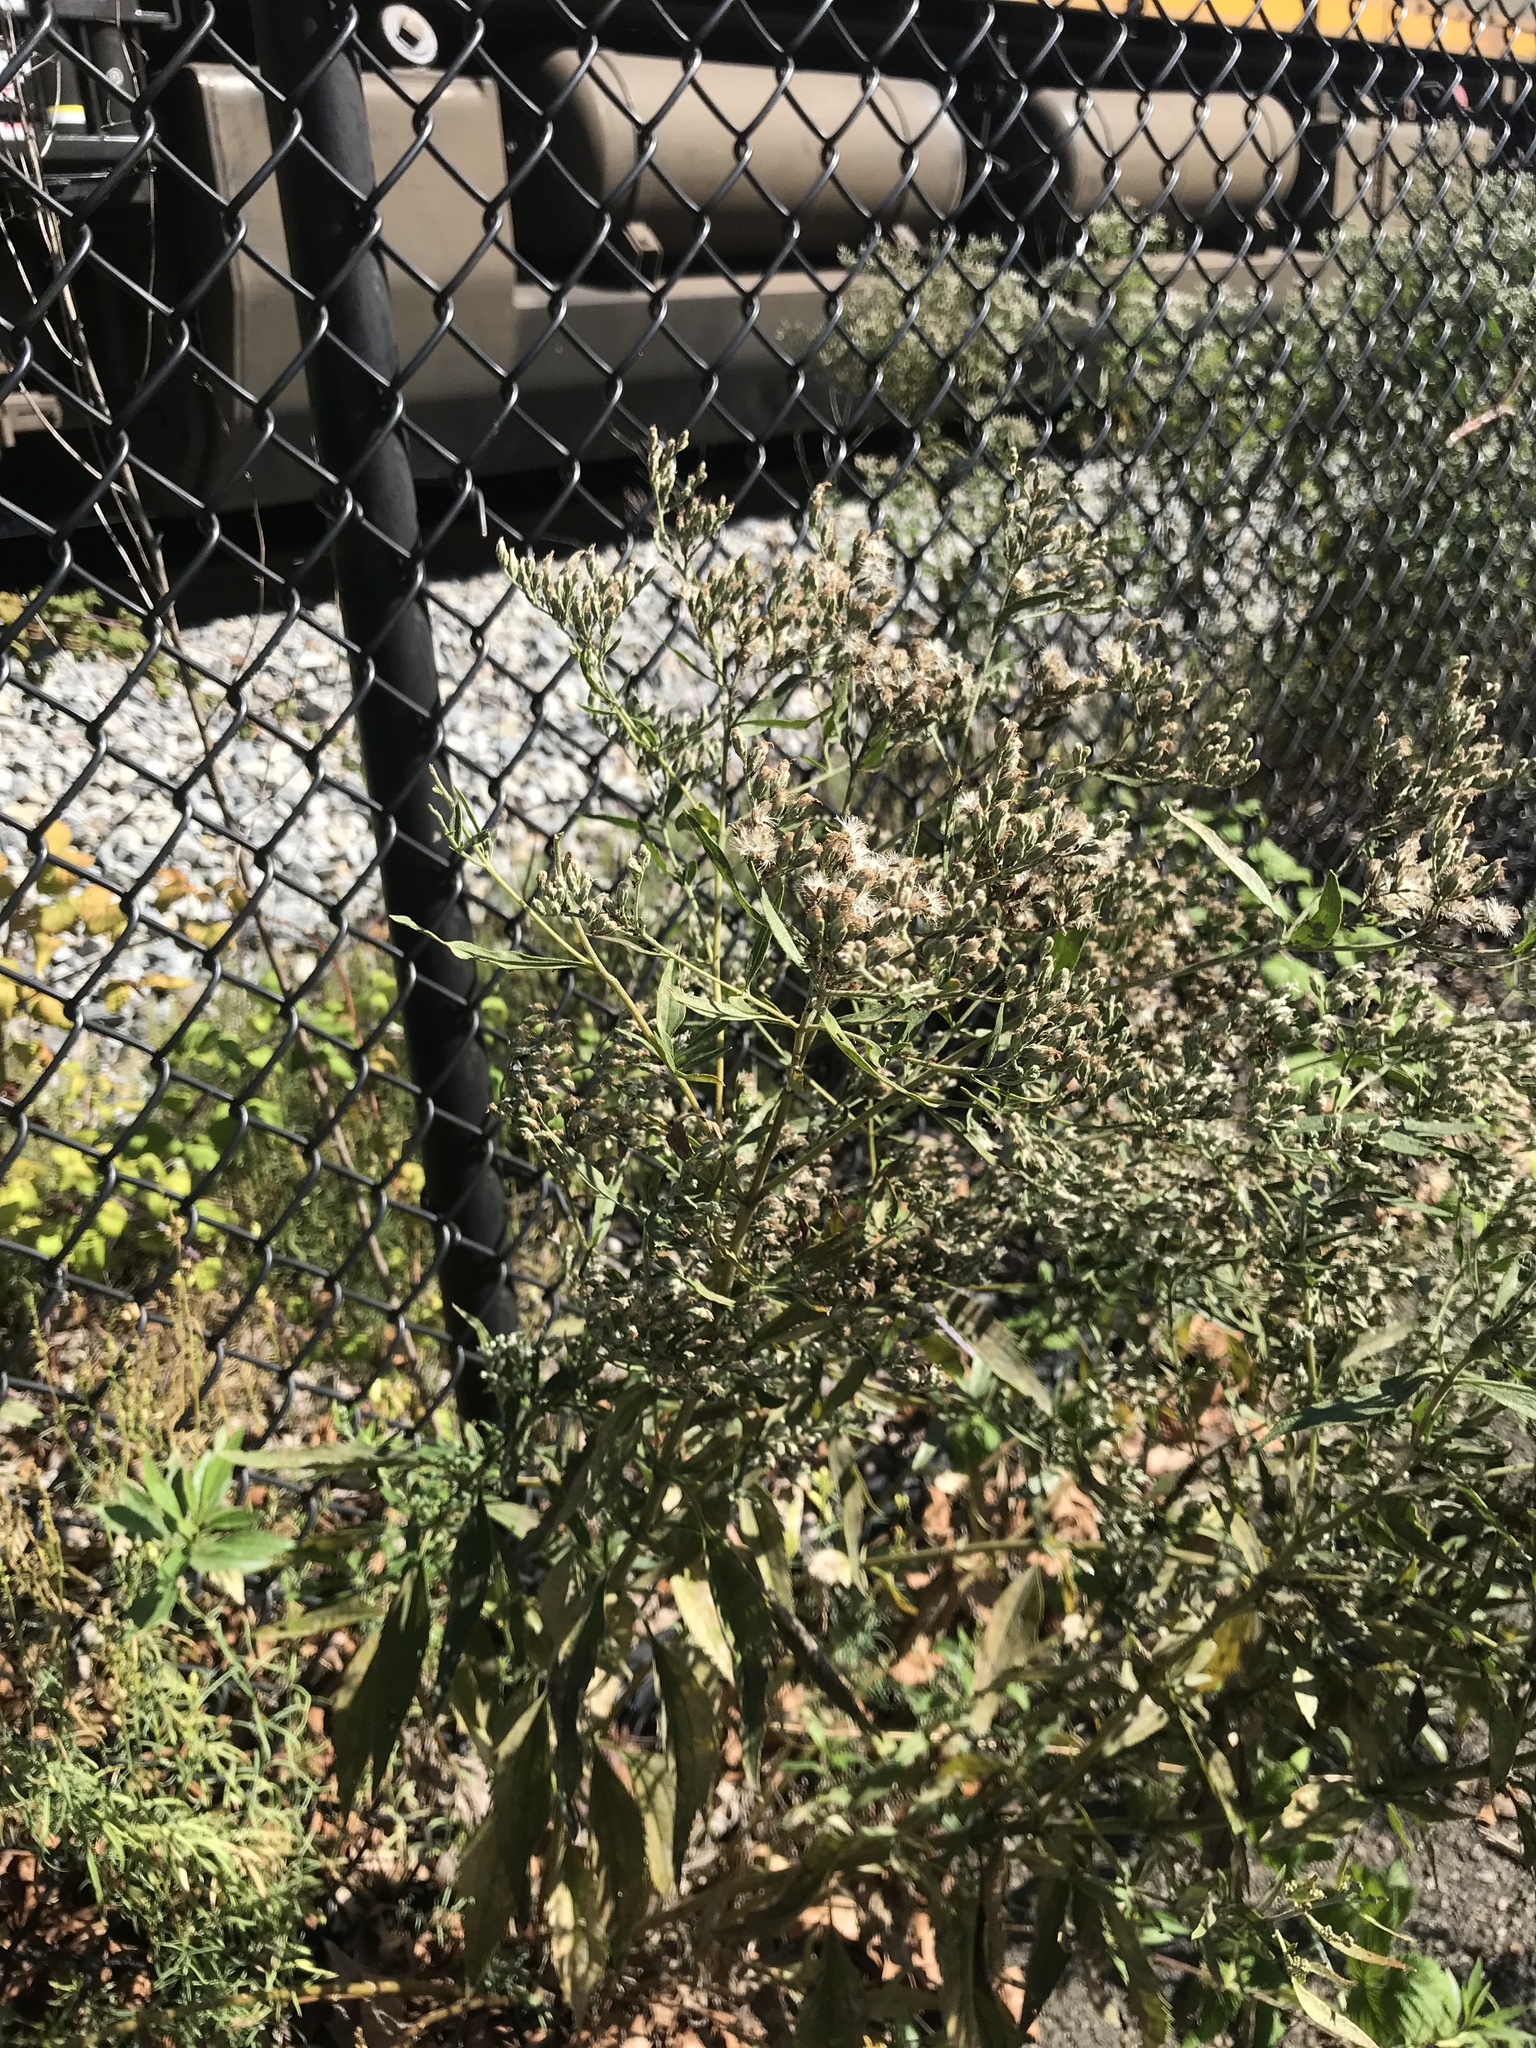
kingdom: Plantae
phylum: Tracheophyta
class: Magnoliopsida
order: Asterales
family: Asteraceae
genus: Eupatorium
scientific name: Eupatorium serotinum
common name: Late boneset
